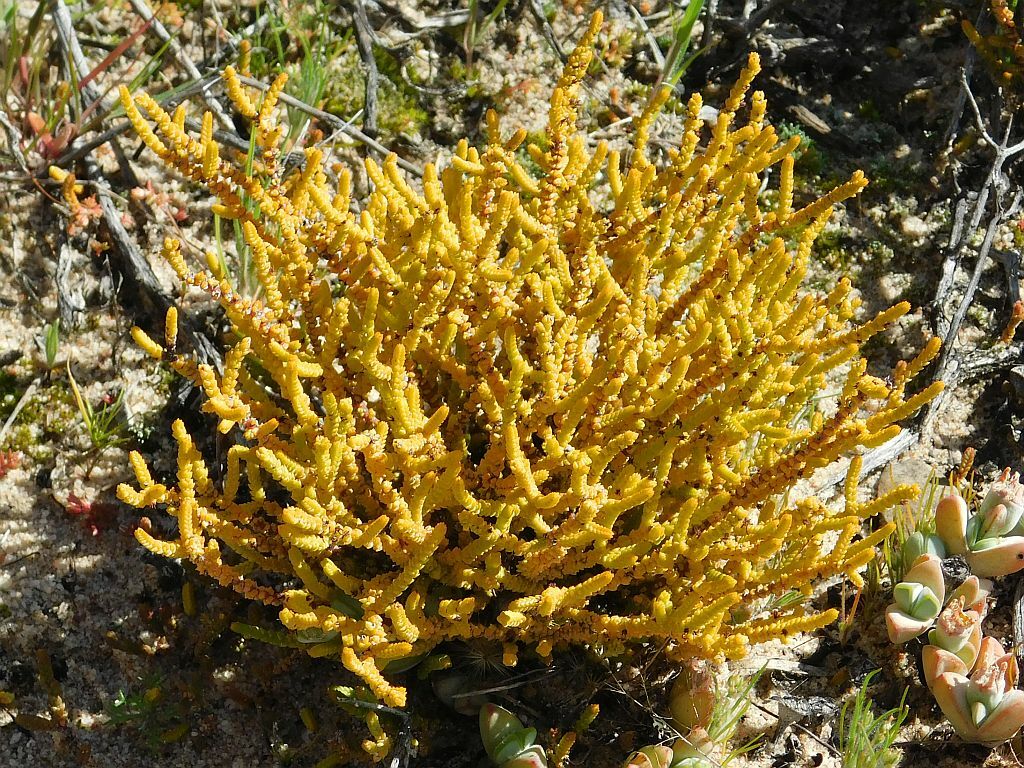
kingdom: Plantae
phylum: Tracheophyta
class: Magnoliopsida
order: Saxifragales
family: Crassulaceae
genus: Crassula
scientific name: Crassula muscosa
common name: Toy-cypress
